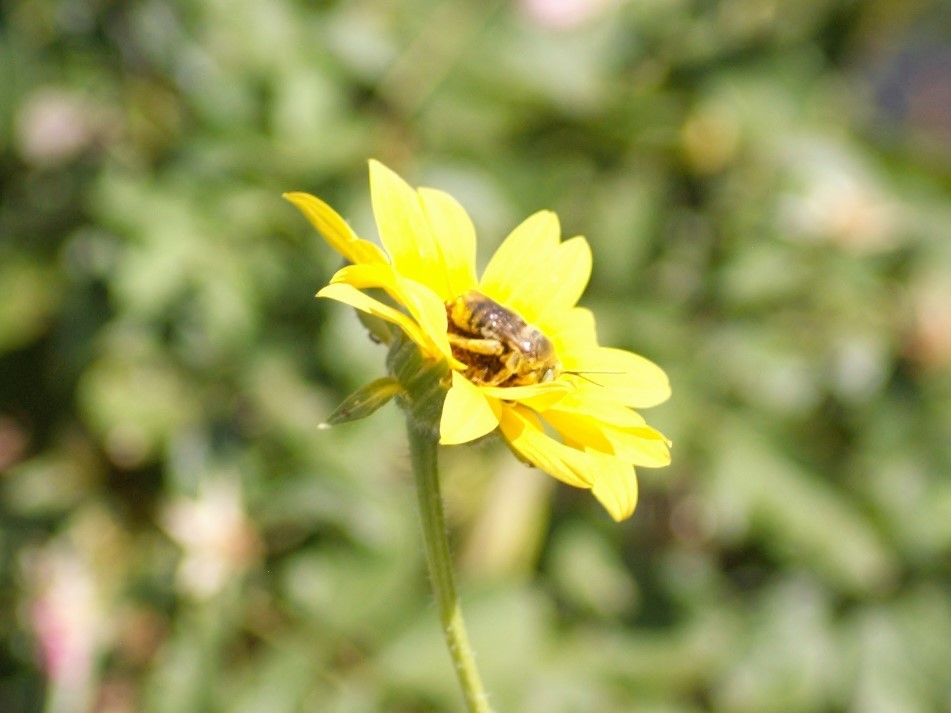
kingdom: Animalia
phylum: Arthropoda
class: Insecta
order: Hymenoptera
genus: Epimelissodes
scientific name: Epimelissodes
